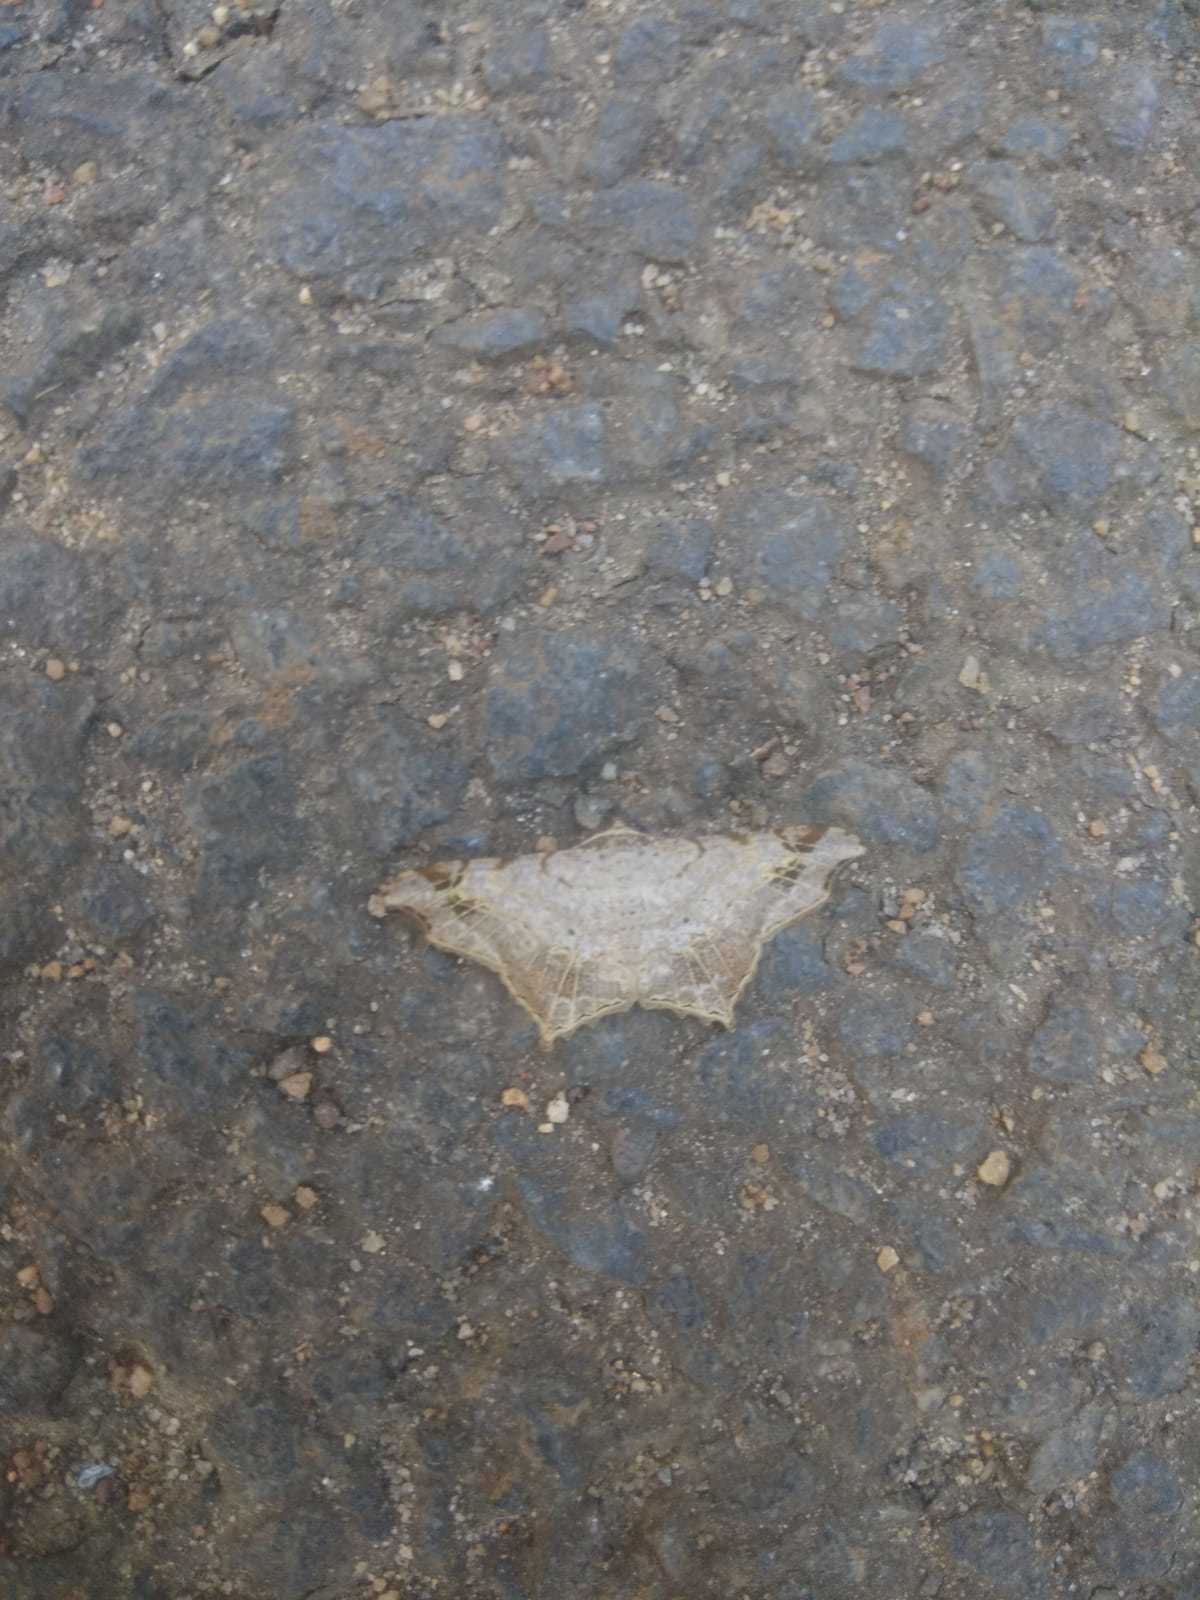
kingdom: Animalia
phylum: Arthropoda
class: Insecta
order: Lepidoptera
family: Geometridae
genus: Chiasmia
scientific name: Chiasmia emersaria
